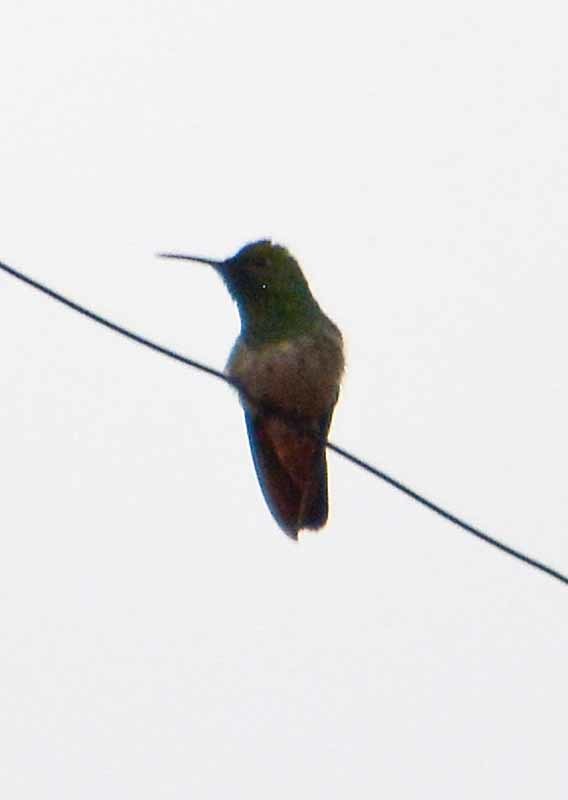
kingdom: Animalia
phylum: Chordata
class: Aves
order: Apodiformes
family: Trochilidae
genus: Saucerottia
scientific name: Saucerottia beryllina
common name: Berylline hummingbird
